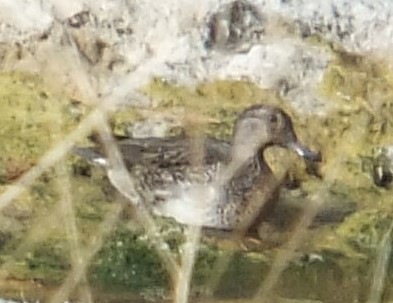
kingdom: Animalia
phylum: Chordata
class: Aves
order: Anseriformes
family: Anatidae
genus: Anas
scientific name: Anas carolinensis
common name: Green-winged teal
